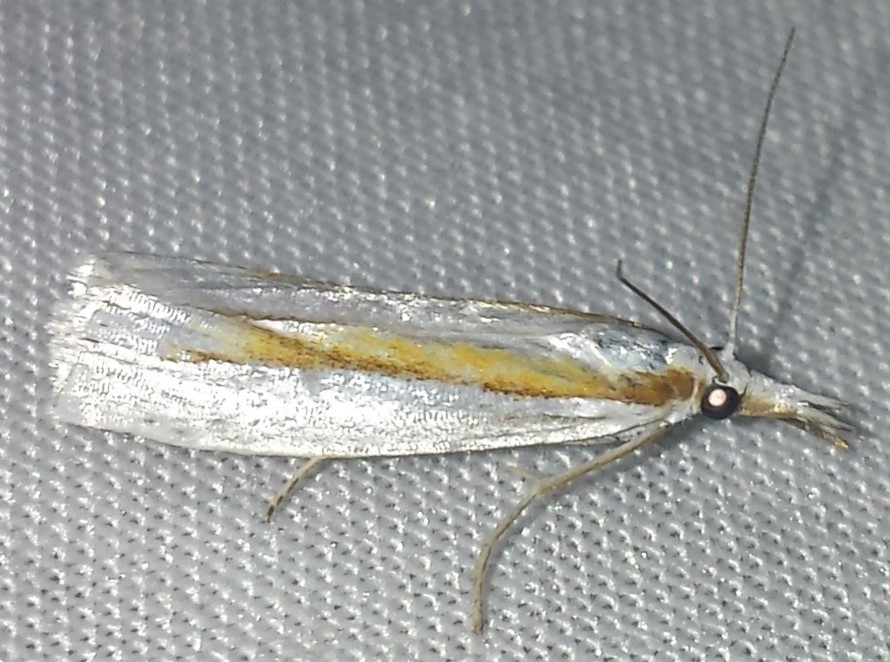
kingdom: Animalia
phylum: Arthropoda
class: Insecta
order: Lepidoptera
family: Crambidae
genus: Crambus
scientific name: Crambus girardellus
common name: Girard's grass-veneer
